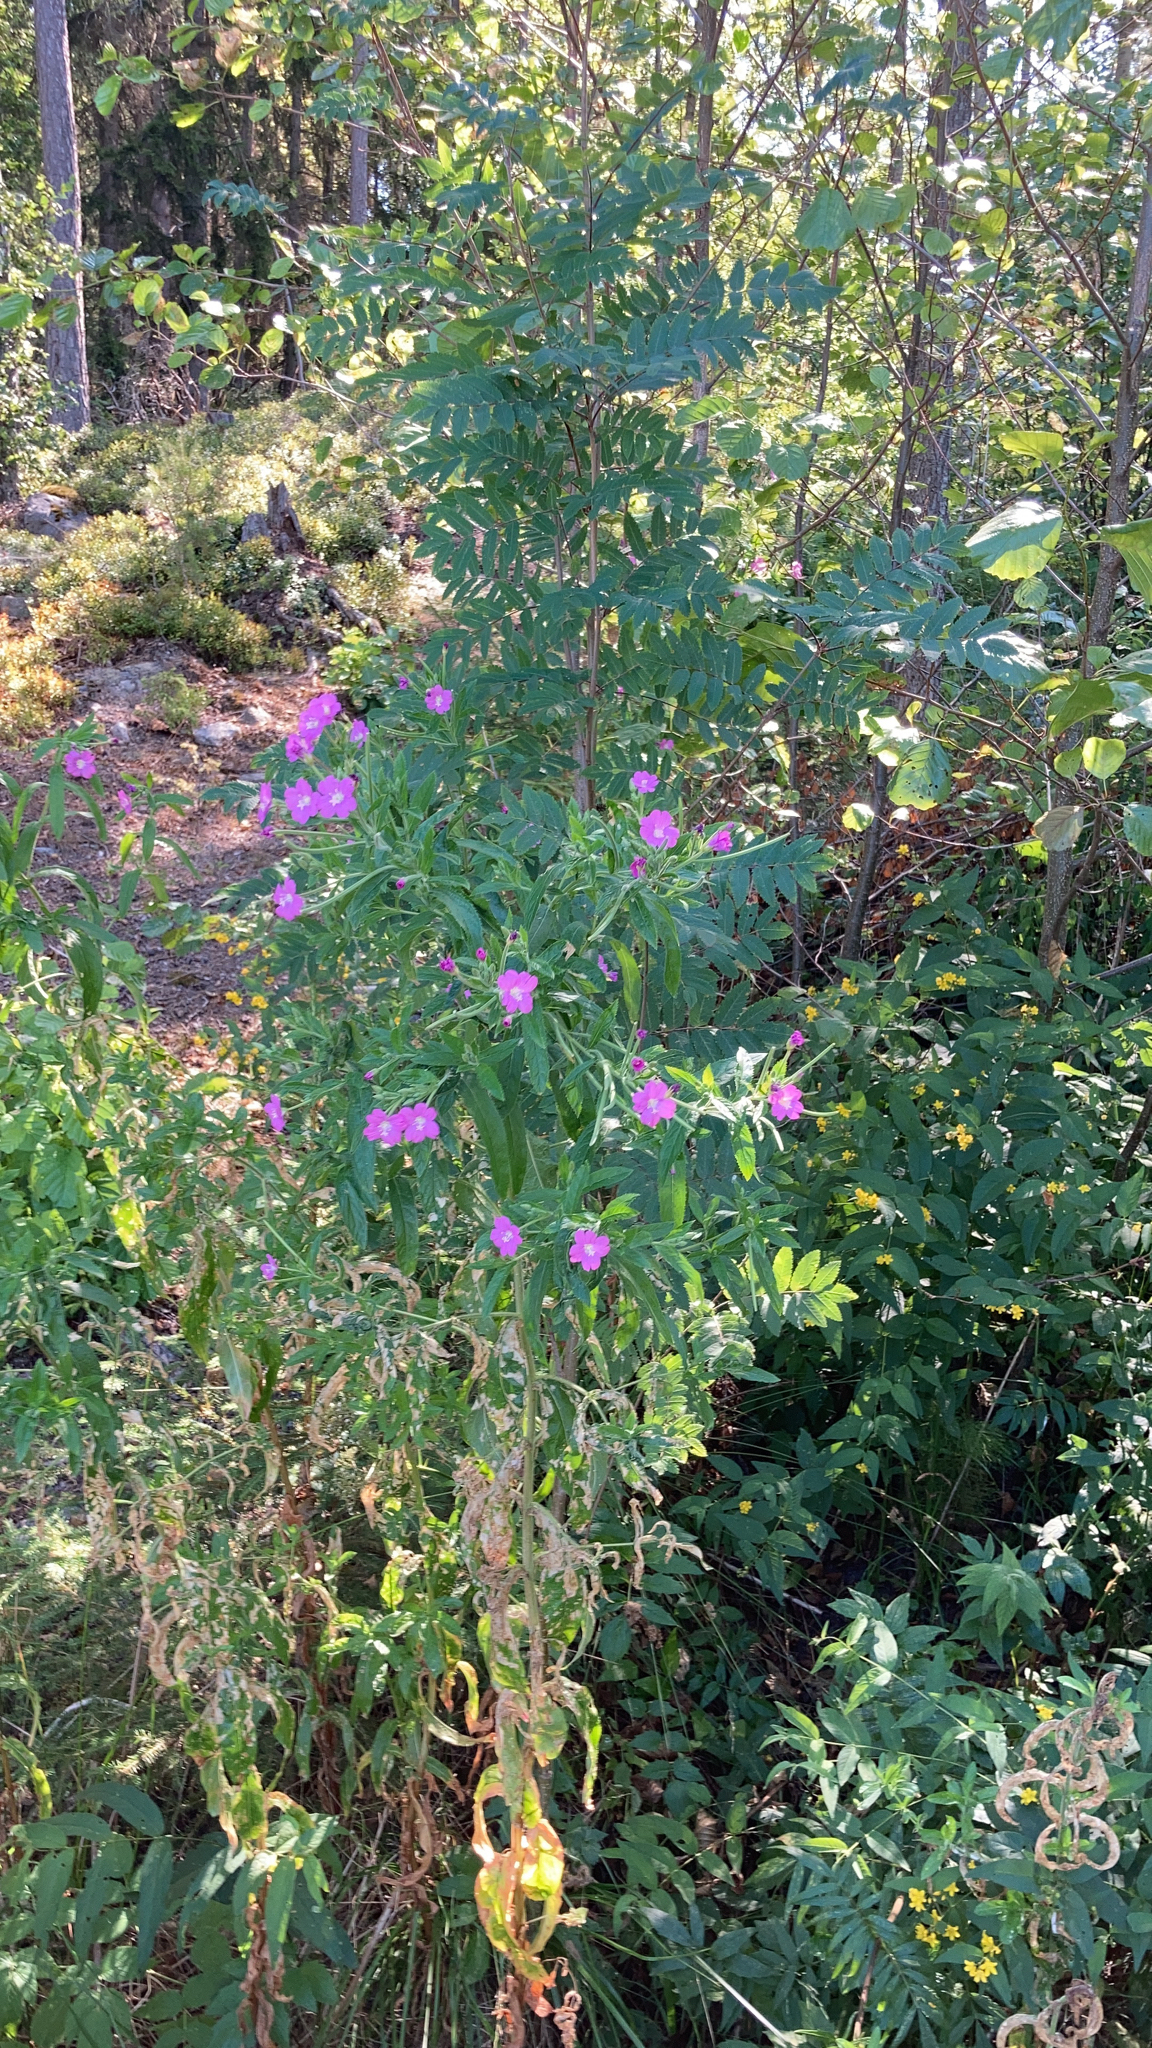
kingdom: Plantae
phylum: Tracheophyta
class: Magnoliopsida
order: Myrtales
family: Onagraceae
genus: Epilobium
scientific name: Epilobium hirsutum
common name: Great willowherb
